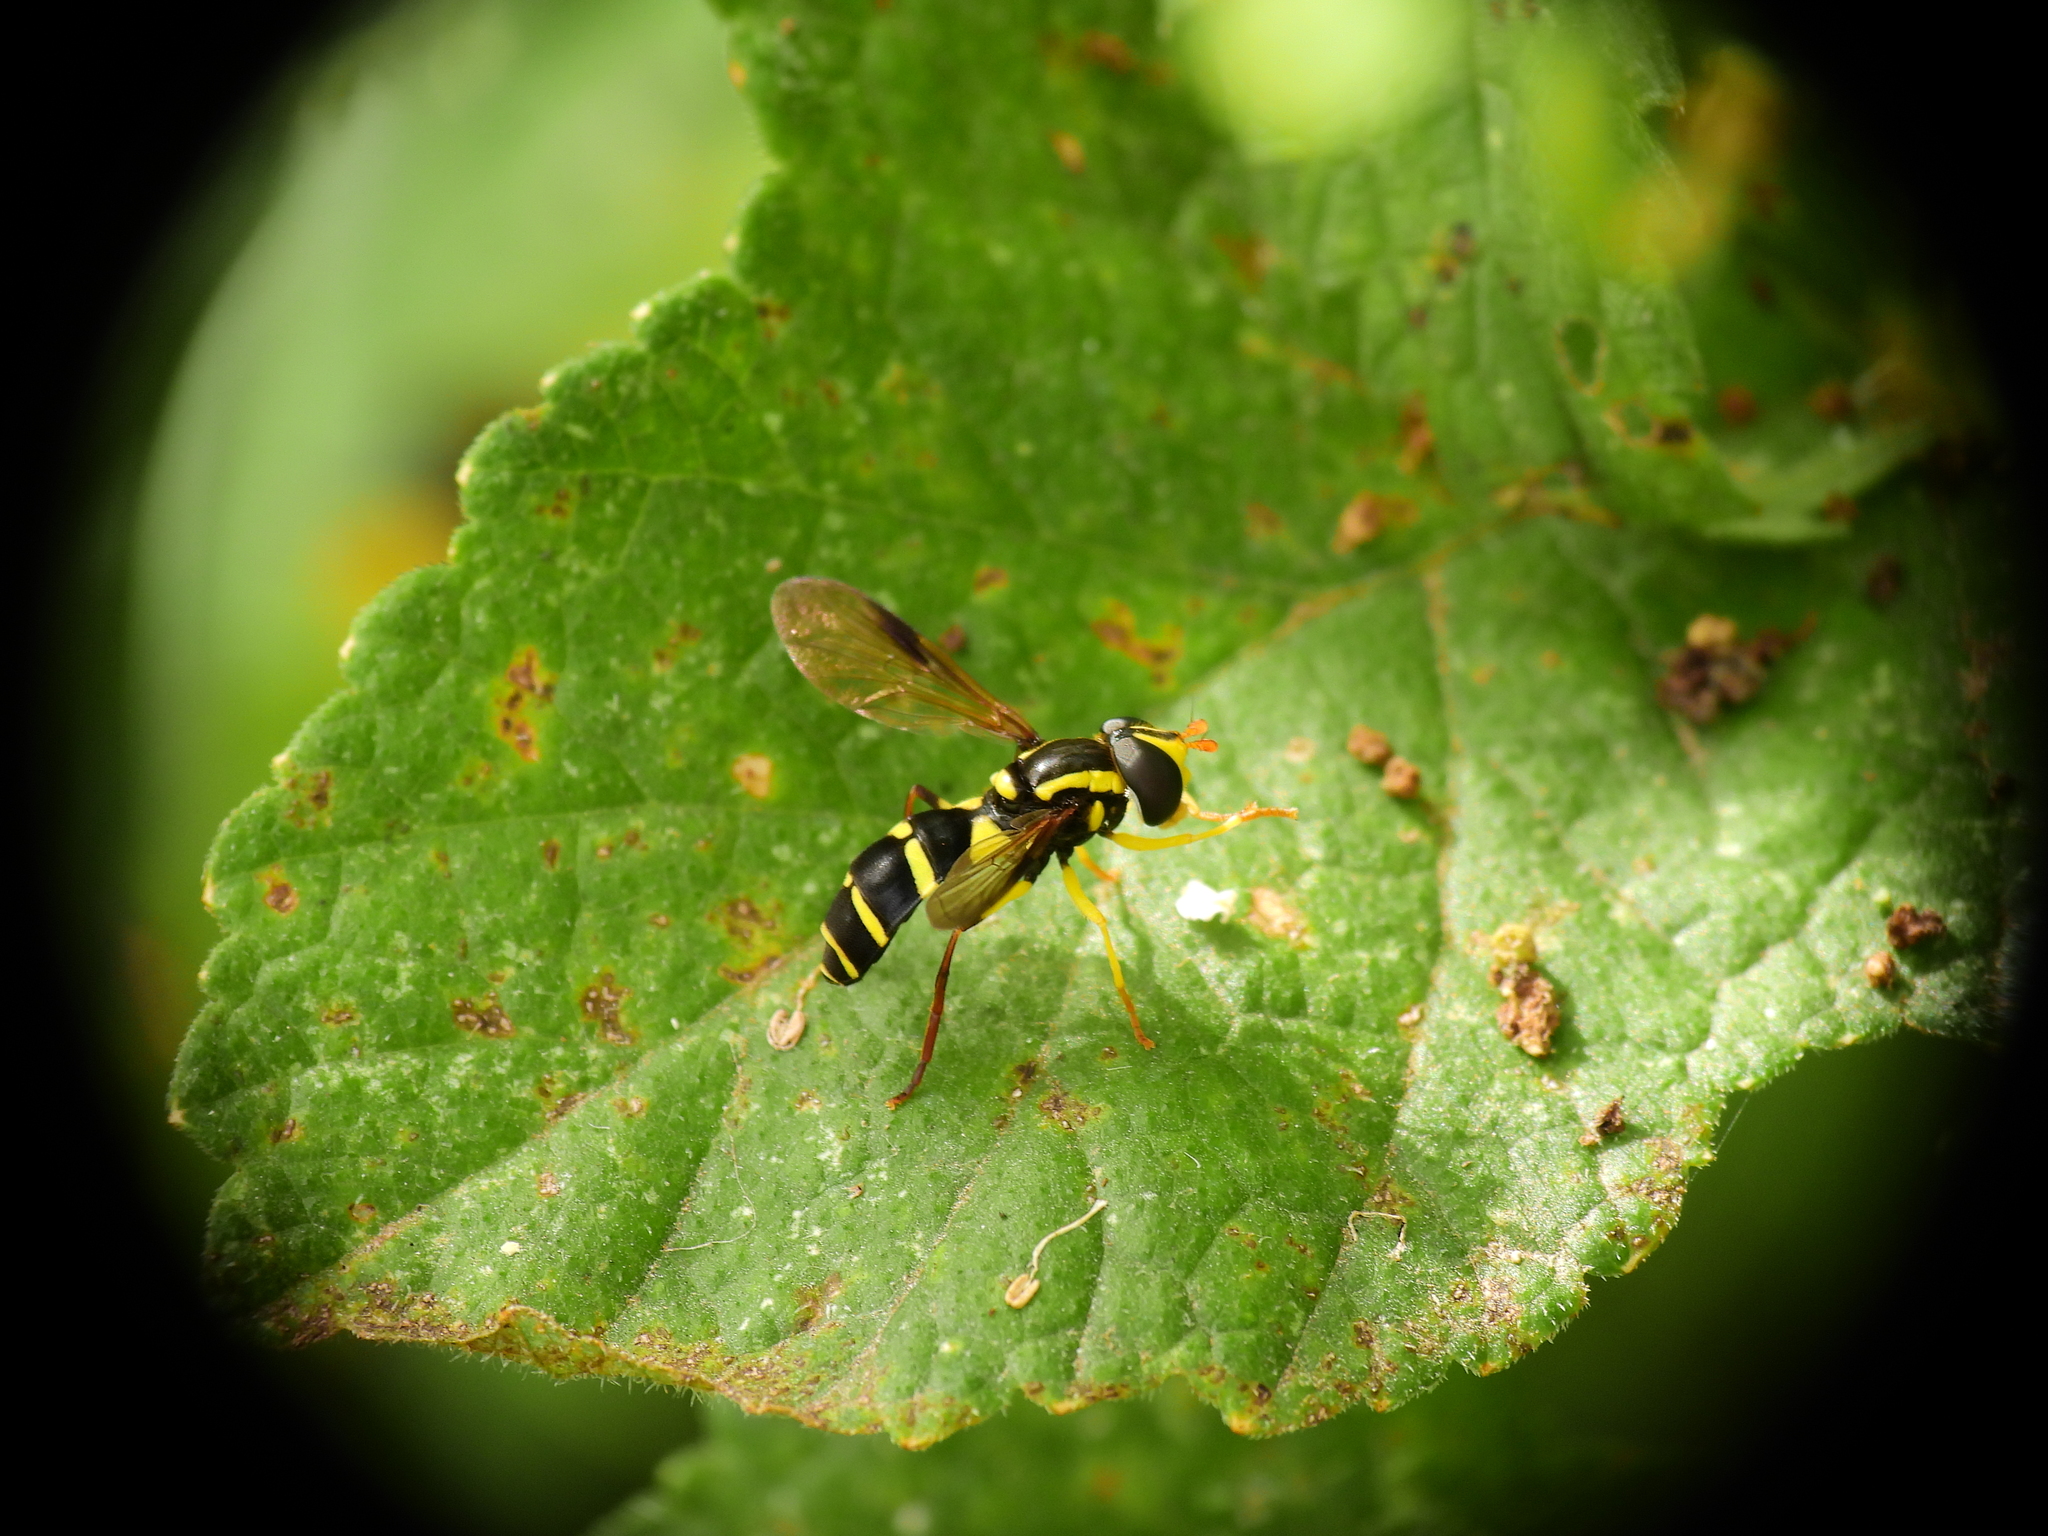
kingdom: Animalia
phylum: Arthropoda
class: Insecta
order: Diptera
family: Syrphidae
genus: Philhelius
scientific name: Philhelius pedissequum
